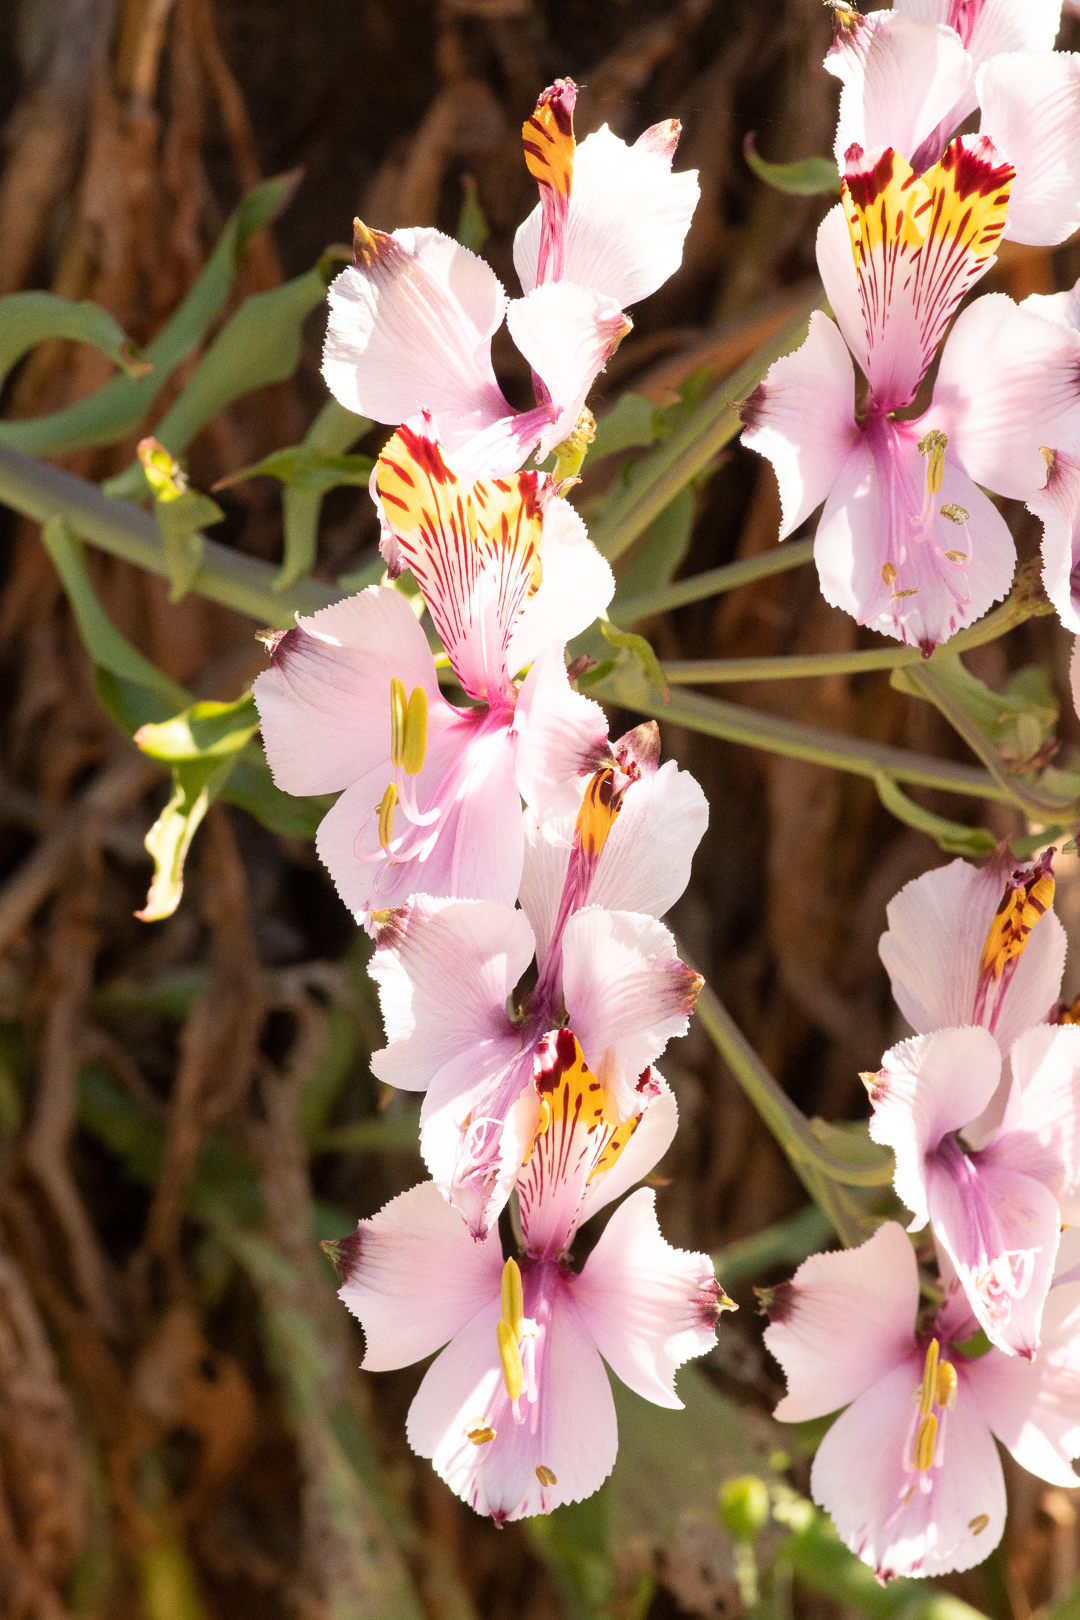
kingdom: Plantae
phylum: Tracheophyta
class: Liliopsida
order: Liliales
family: Alstroemeriaceae
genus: Alstroemeria
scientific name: Alstroemeria pulchra
